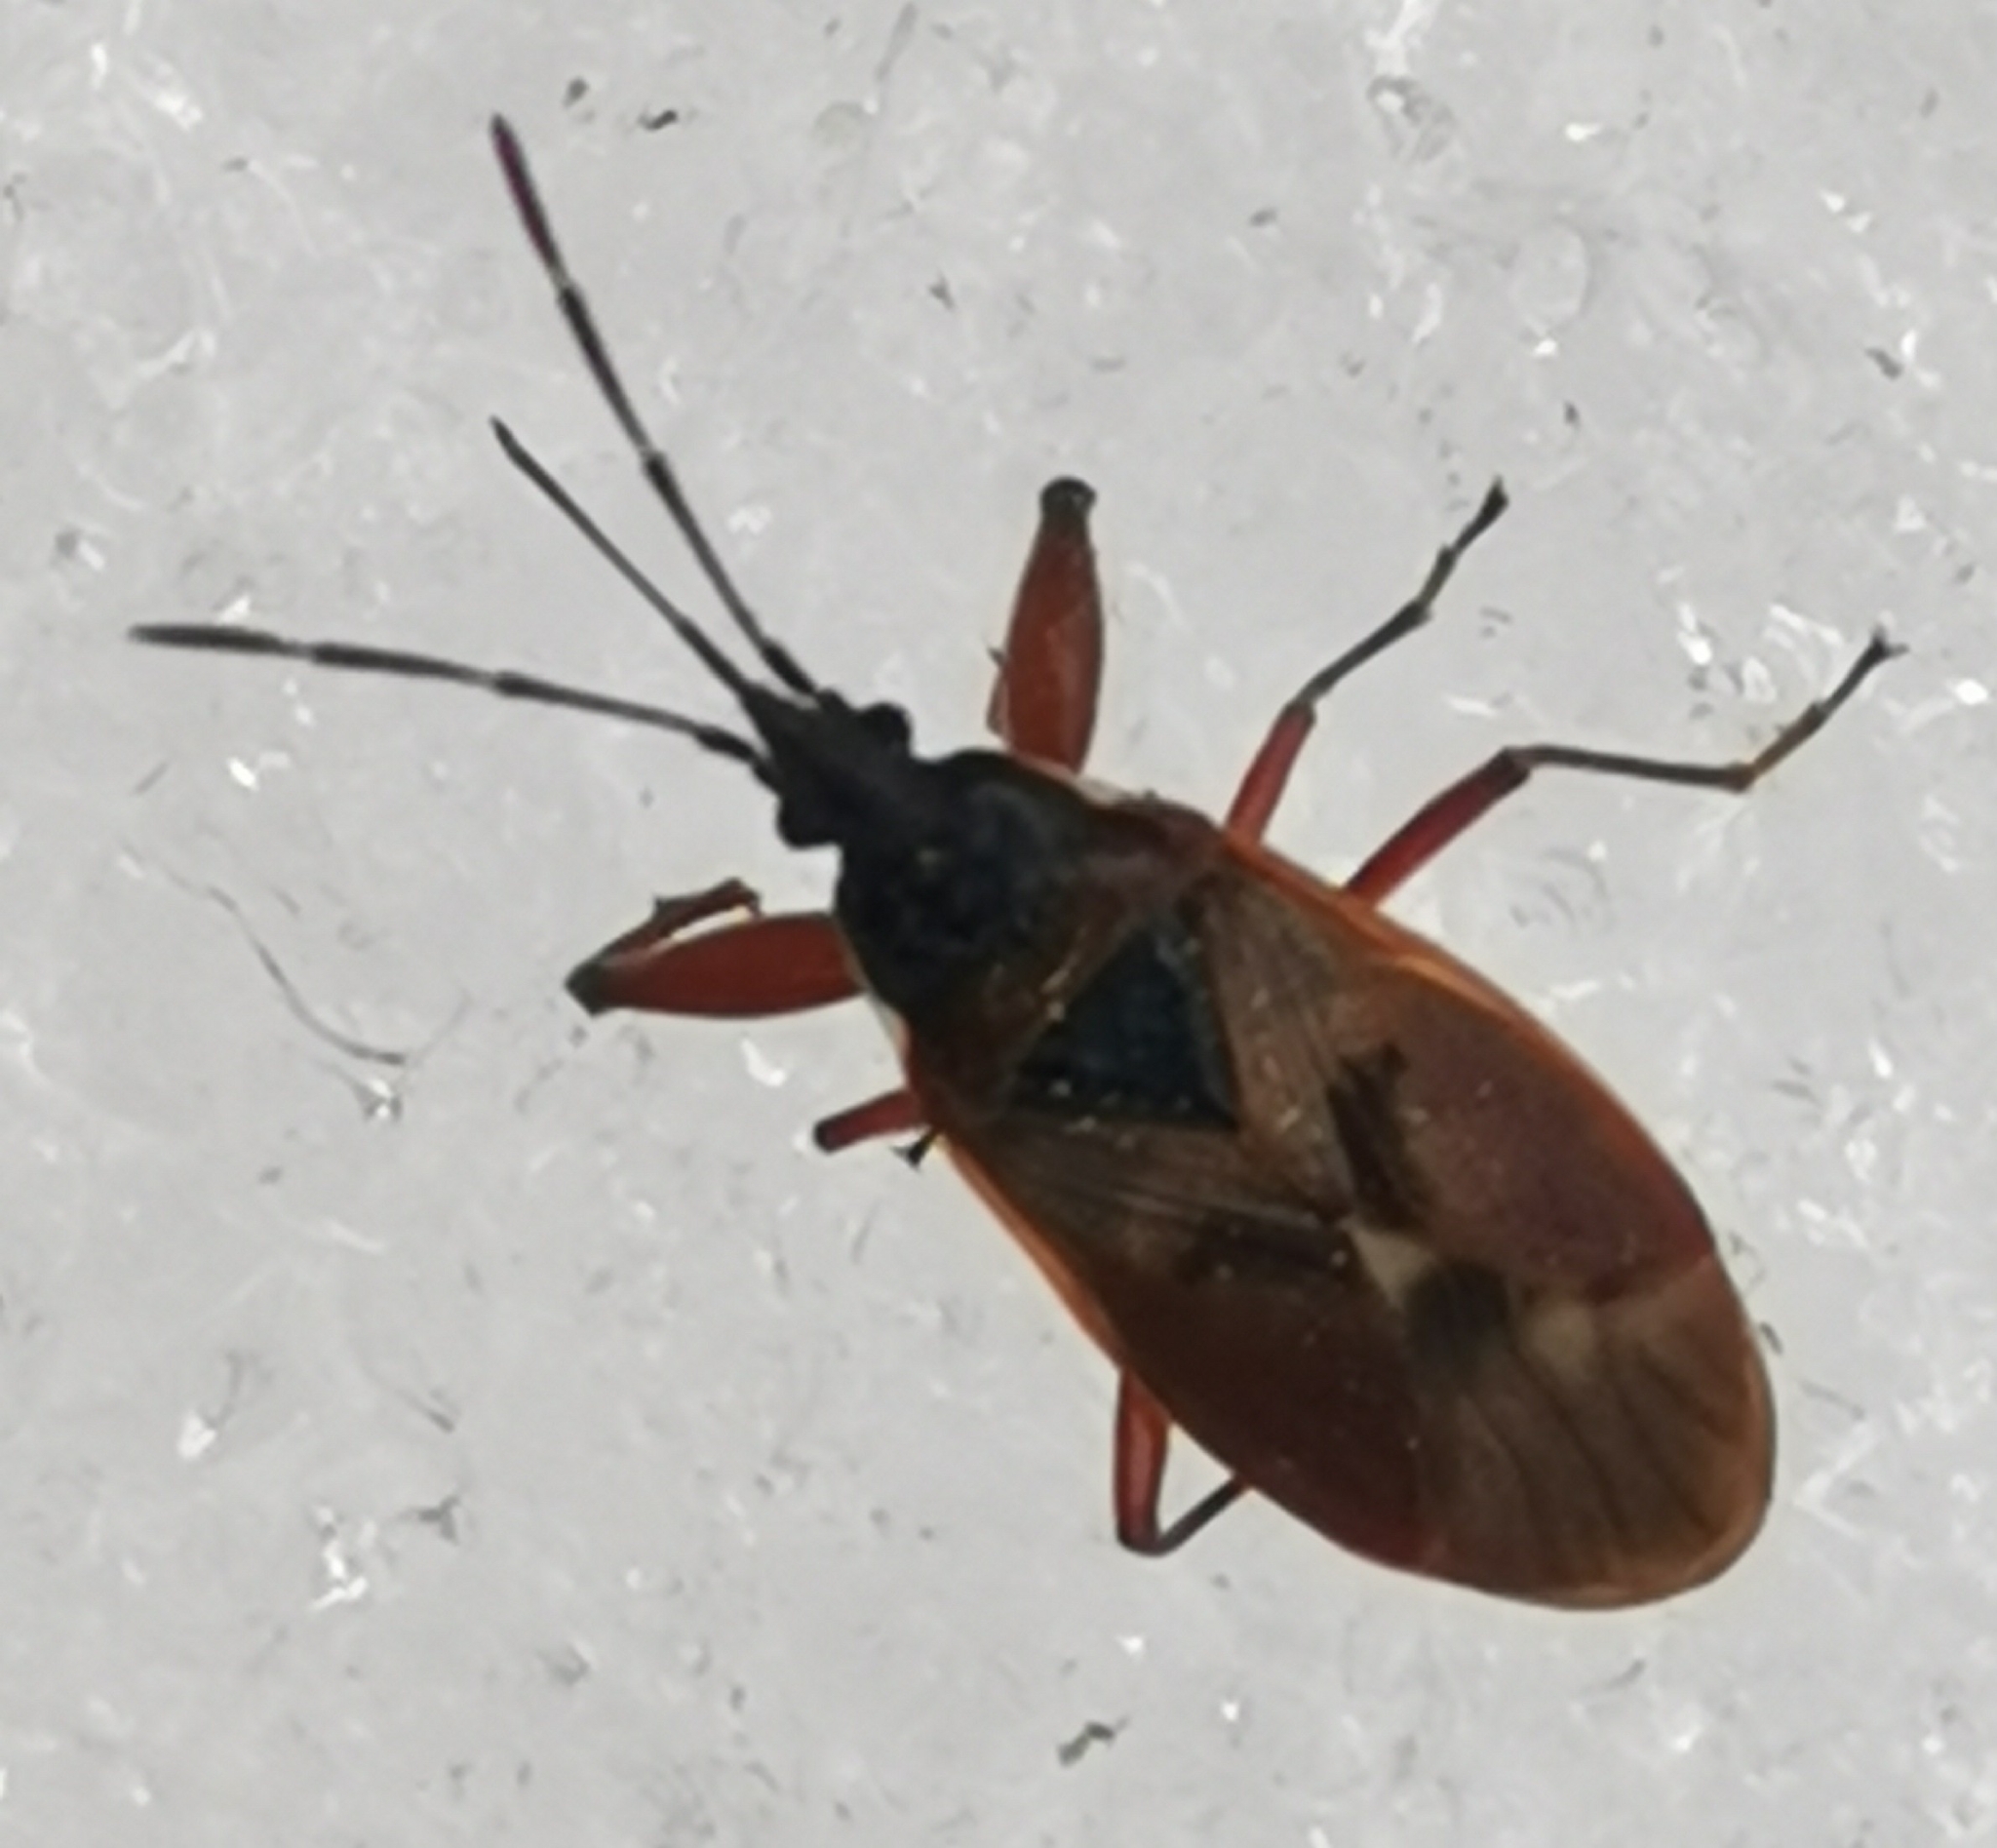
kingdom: Animalia
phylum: Arthropoda
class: Insecta
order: Hemiptera
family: Rhyparochromidae
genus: Gastrodes
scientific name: Gastrodes abietum
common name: Spruce cone bug
